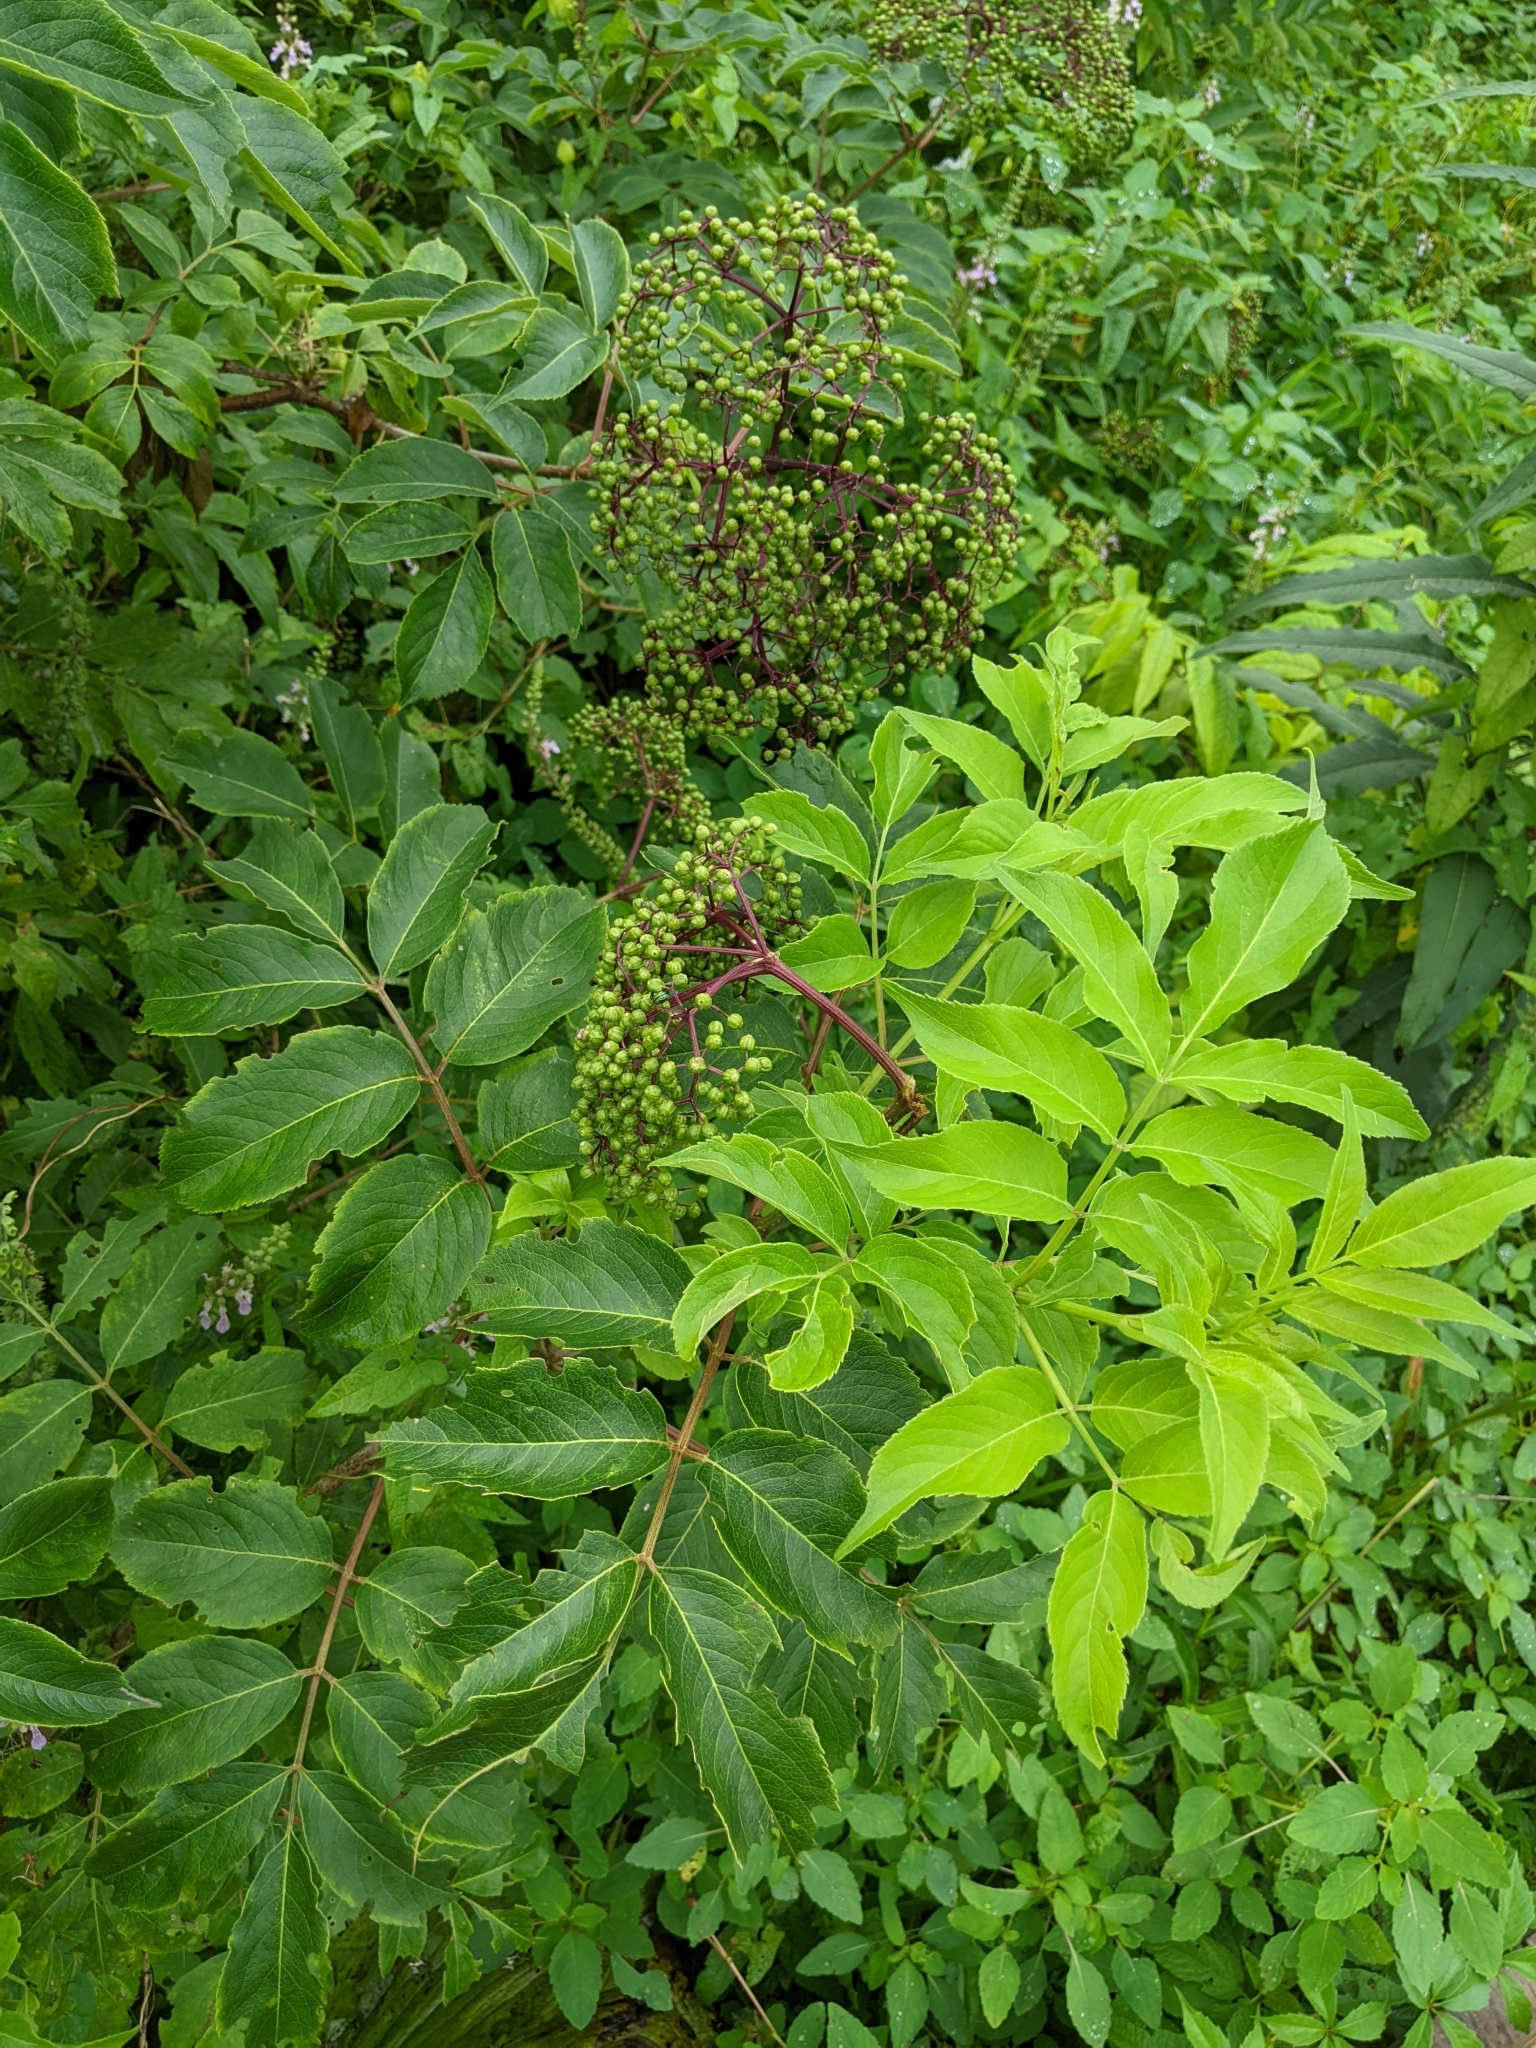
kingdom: Plantae
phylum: Tracheophyta
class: Magnoliopsida
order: Dipsacales
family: Viburnaceae
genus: Sambucus
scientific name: Sambucus canadensis
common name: American elder
